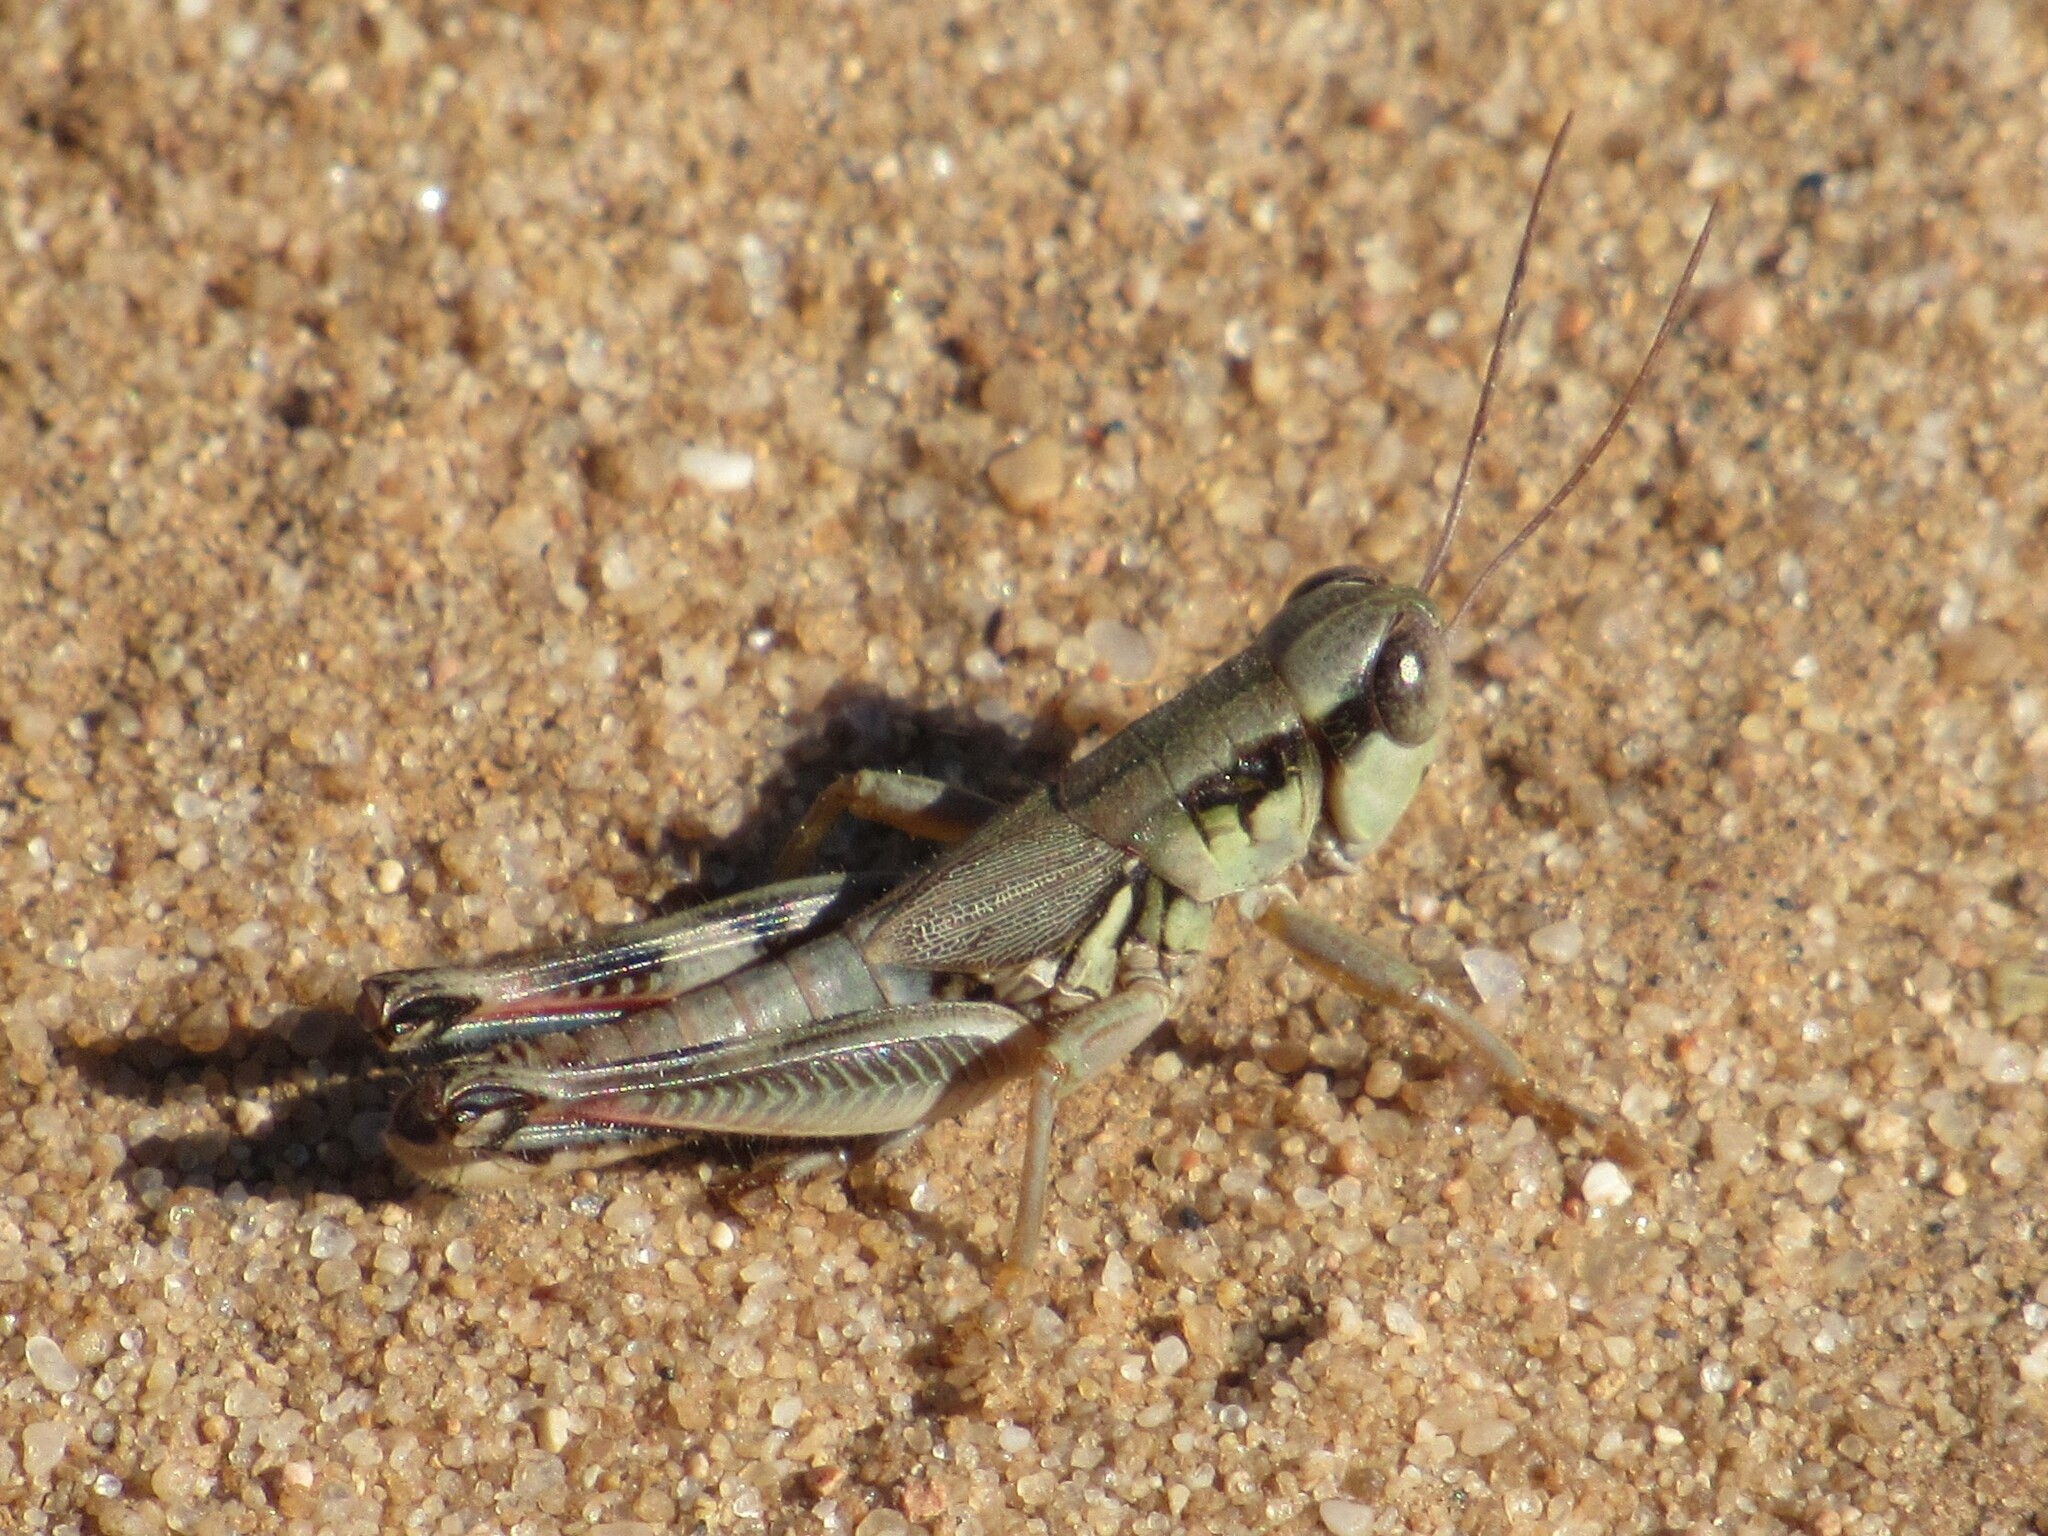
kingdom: Animalia
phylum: Arthropoda
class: Insecta
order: Orthoptera
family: Acrididae
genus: Phoetaliotes
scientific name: Phoetaliotes nebrascensis
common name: Large-headed grasshopper
